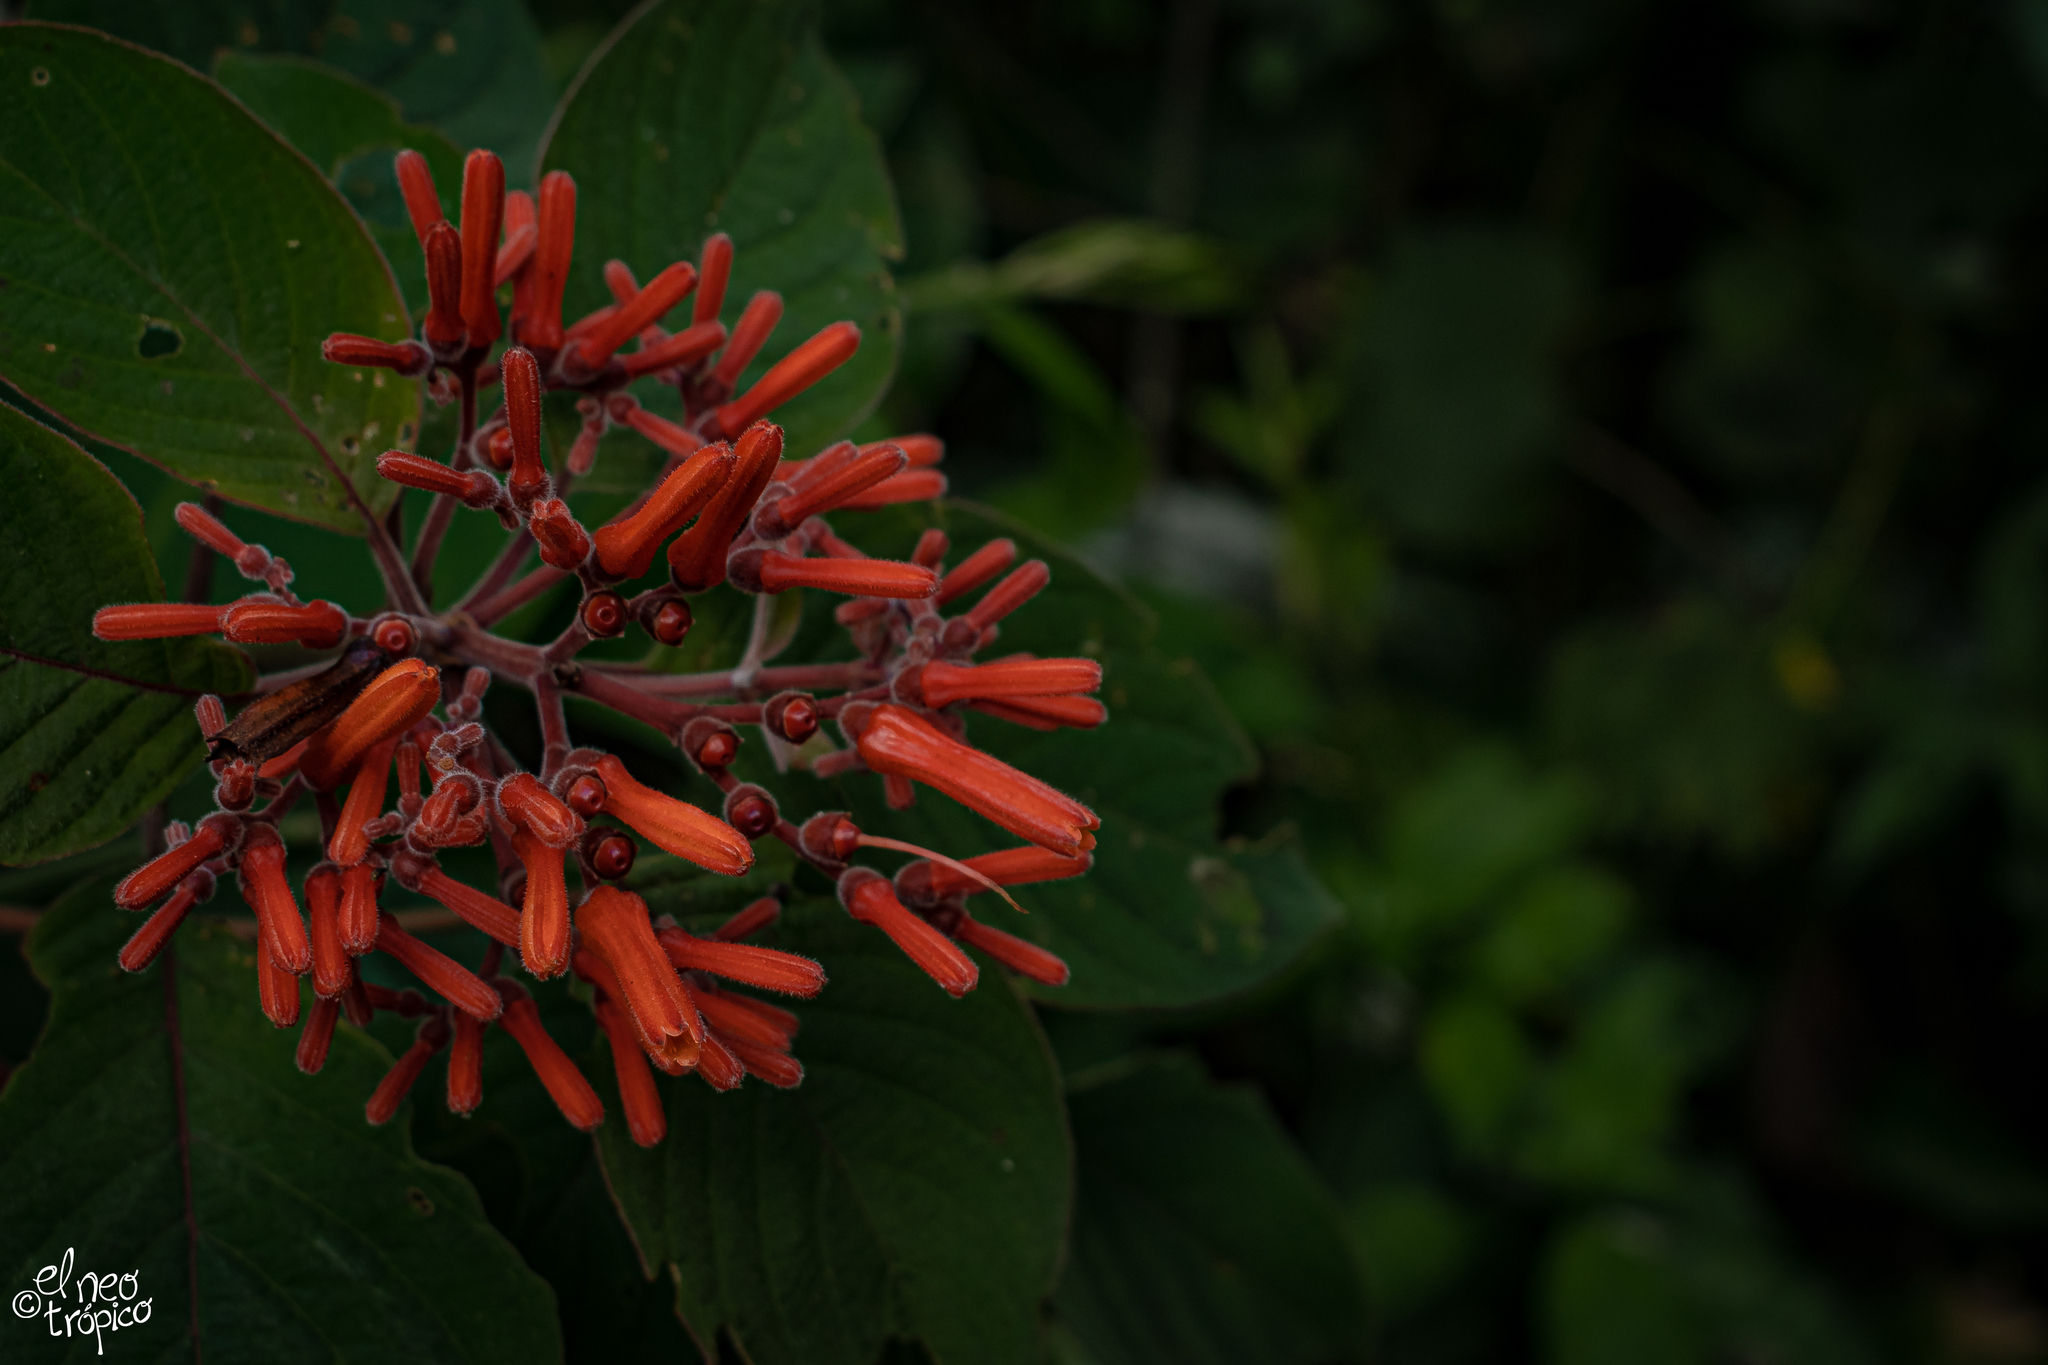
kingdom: Plantae
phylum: Tracheophyta
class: Magnoliopsida
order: Gentianales
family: Rubiaceae
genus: Hamelia
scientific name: Hamelia patens
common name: Redhead
